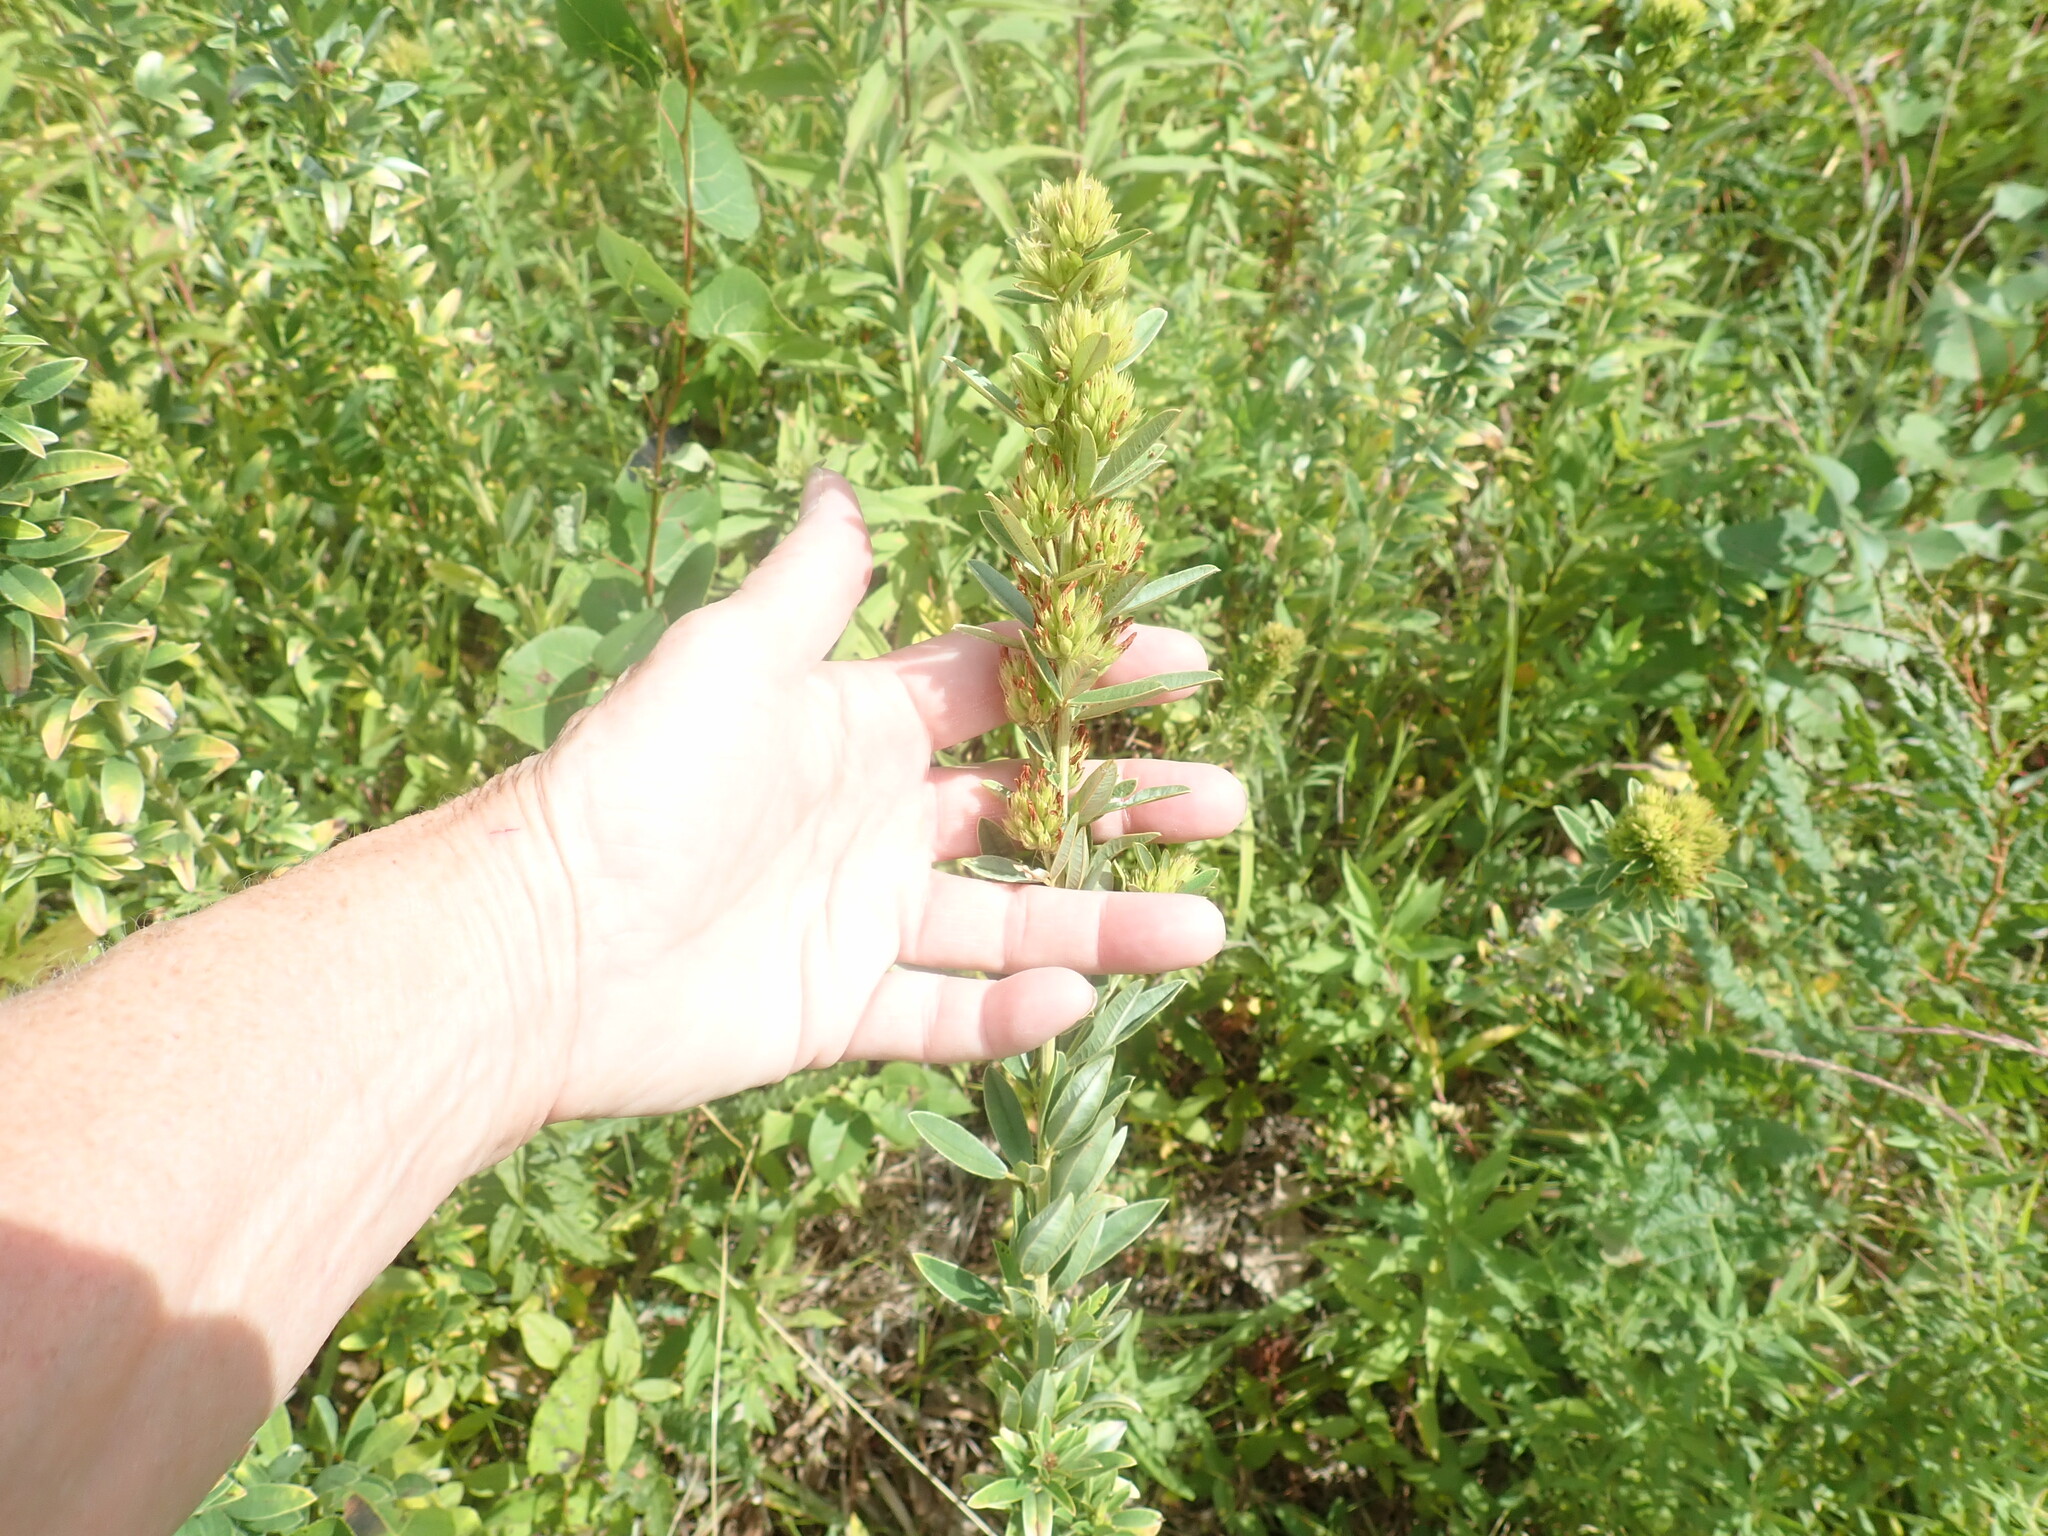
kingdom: Plantae
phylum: Tracheophyta
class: Magnoliopsida
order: Fabales
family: Fabaceae
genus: Lespedeza
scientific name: Lespedeza capitata
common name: Dusty clover
